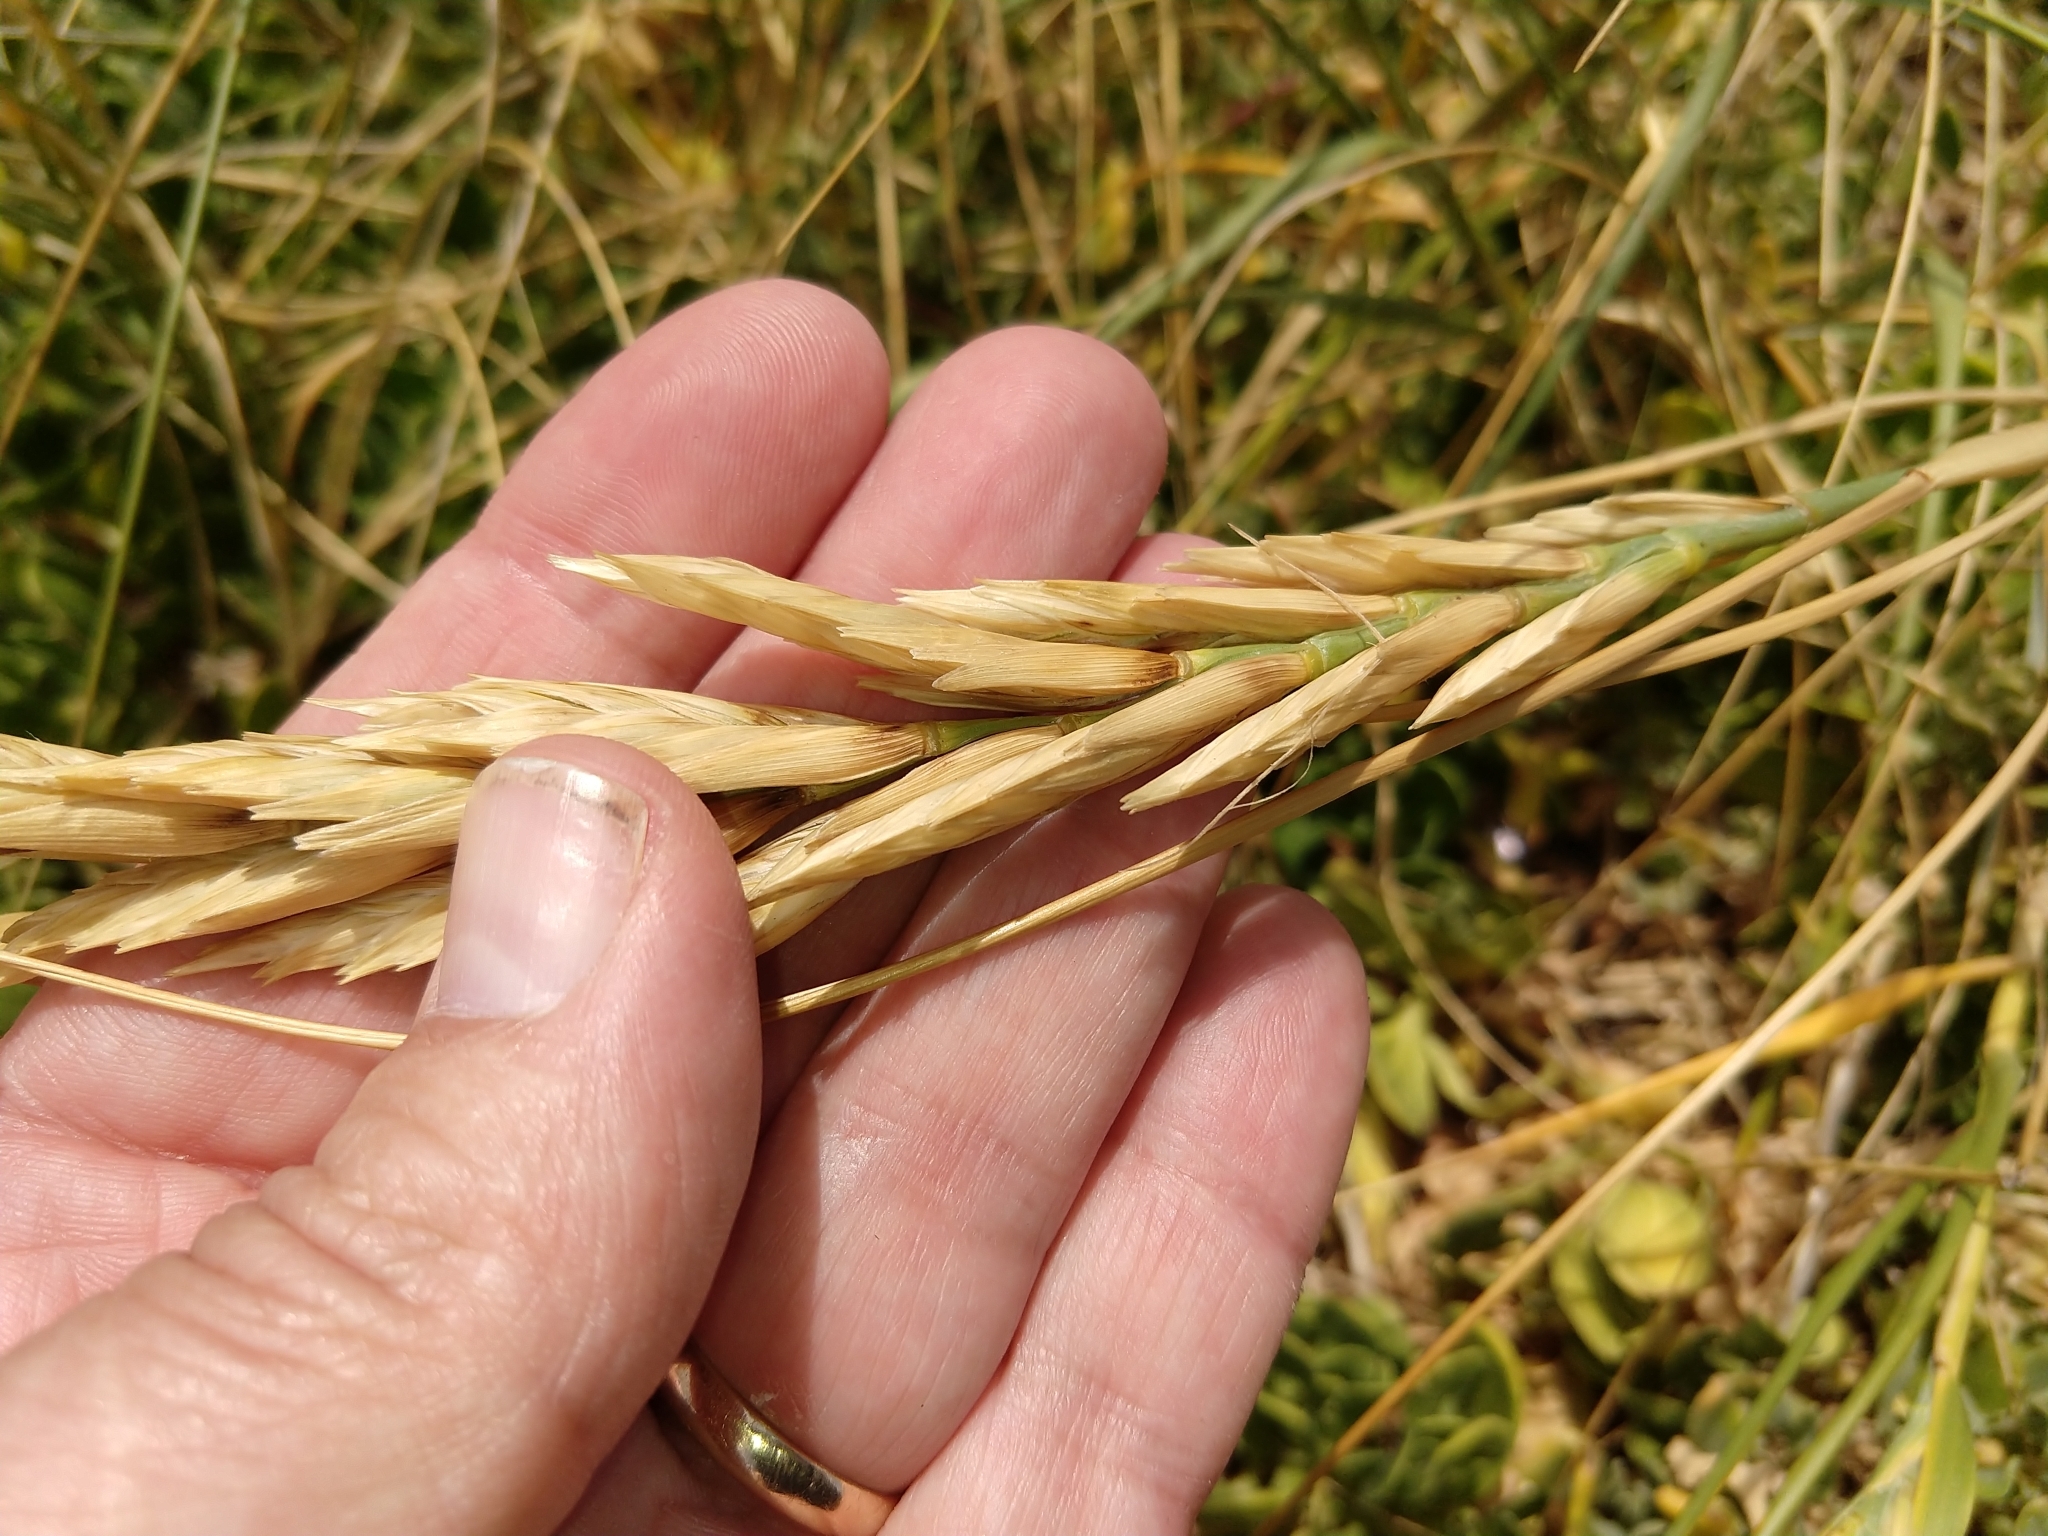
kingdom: Plantae
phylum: Tracheophyta
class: Liliopsida
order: Poales
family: Poaceae
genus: Thinopyrum
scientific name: Thinopyrum distichum
